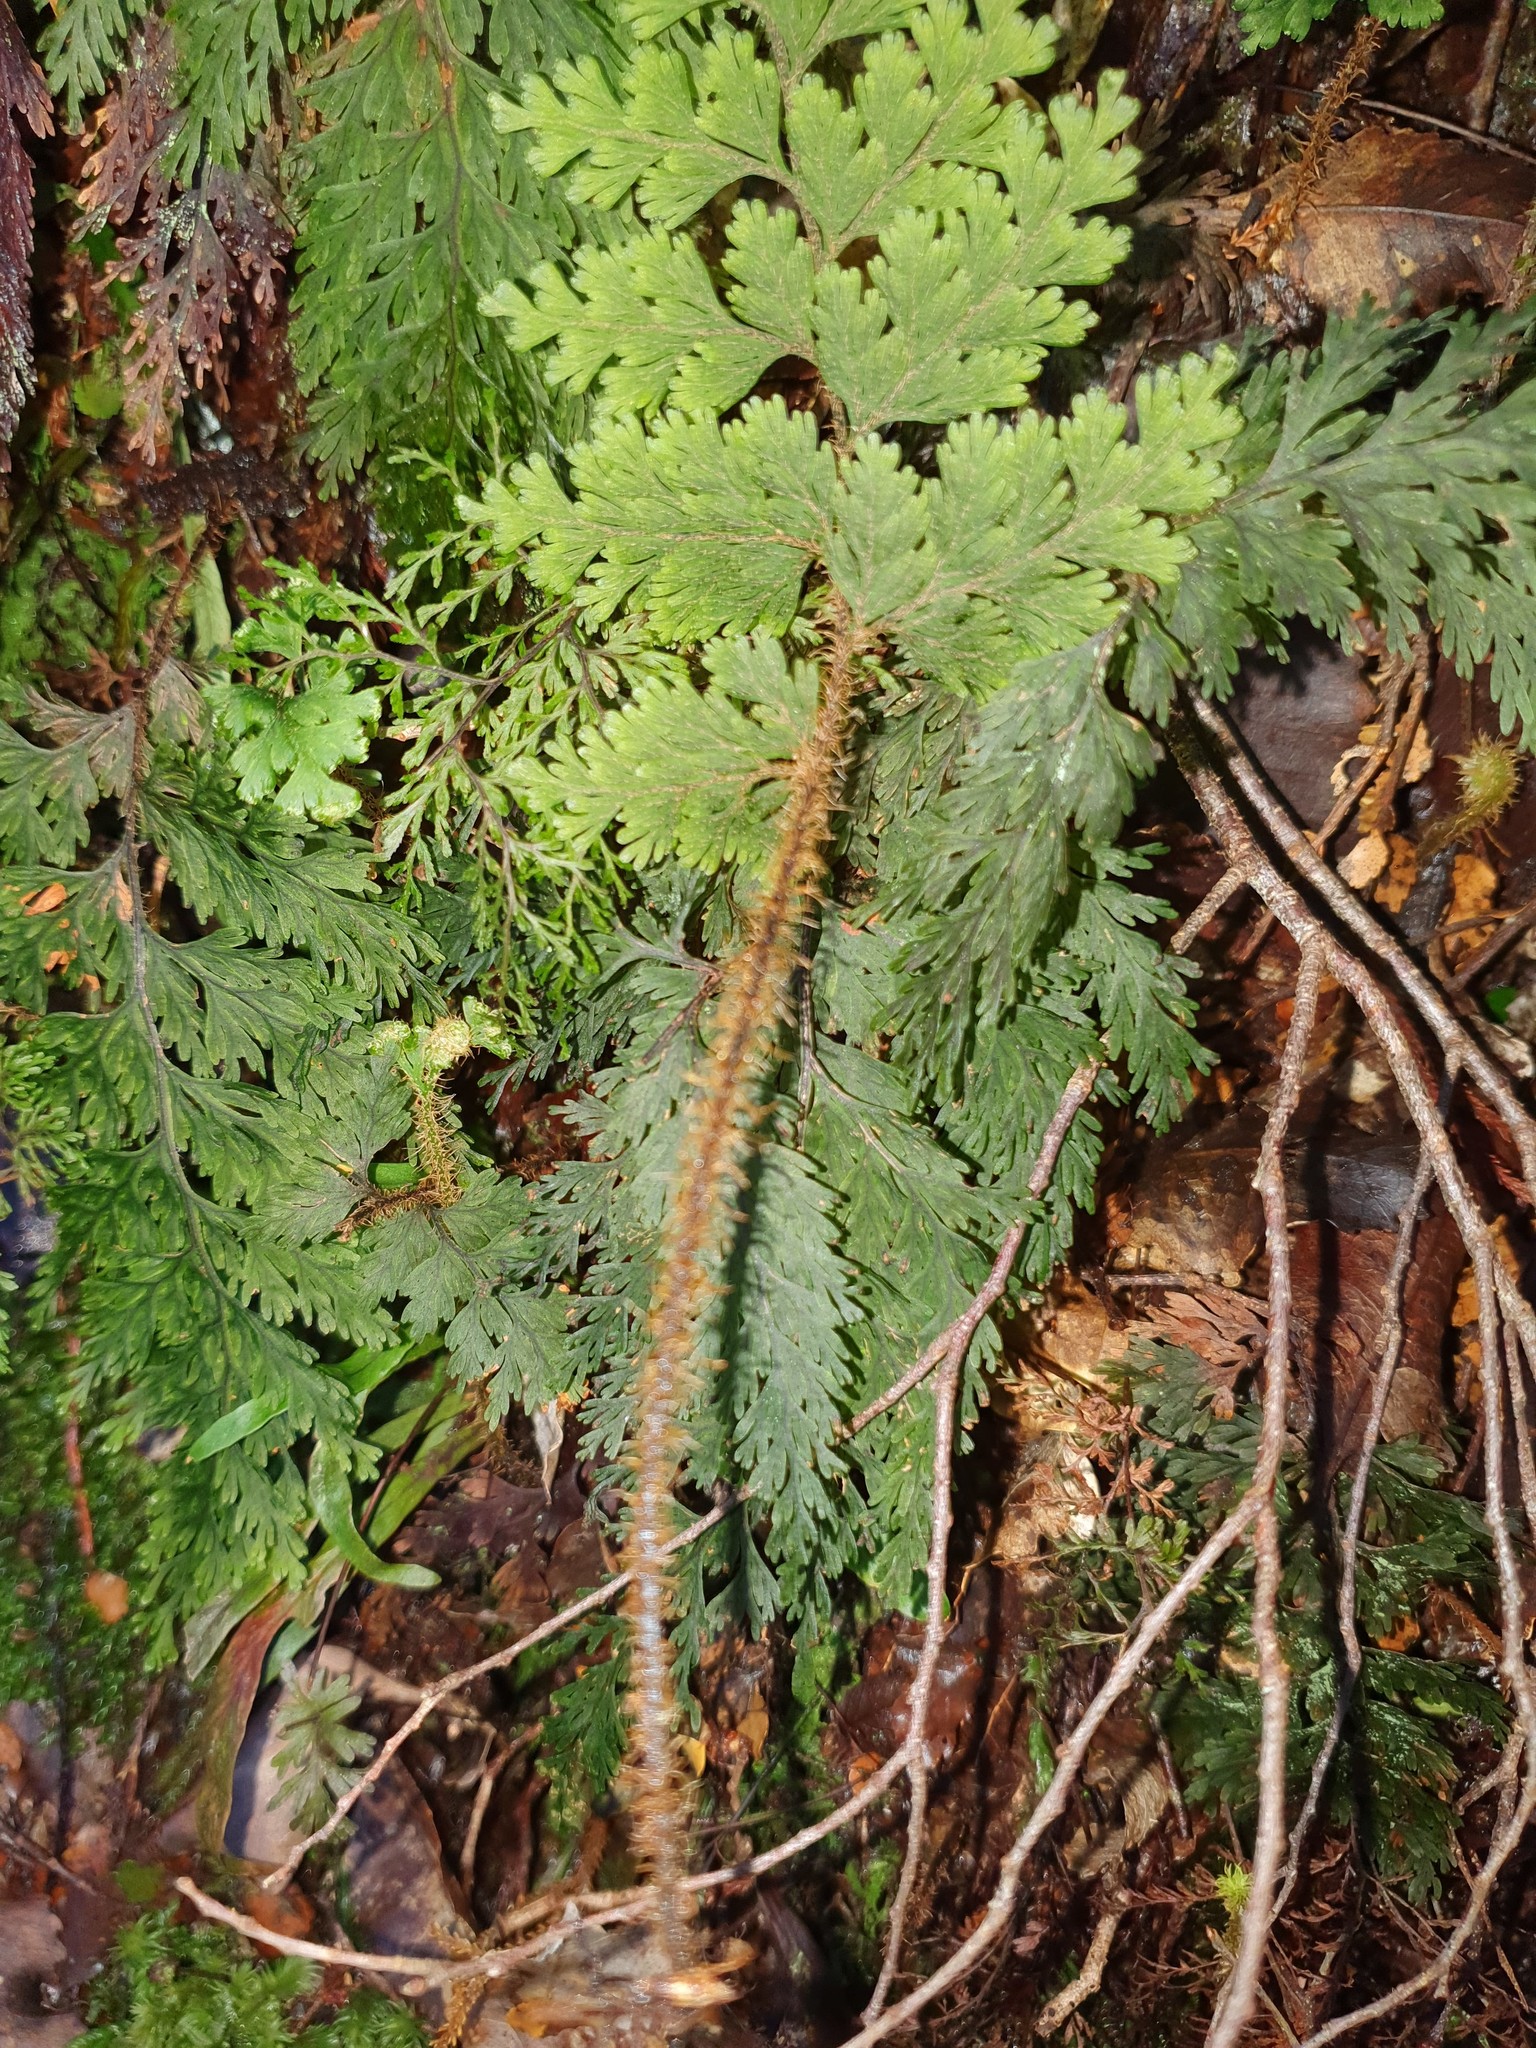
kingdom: Plantae
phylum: Tracheophyta
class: Polypodiopsida
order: Hymenophyllales
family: Hymenophyllaceae
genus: Hymenophyllum
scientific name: Hymenophyllum scabrum
